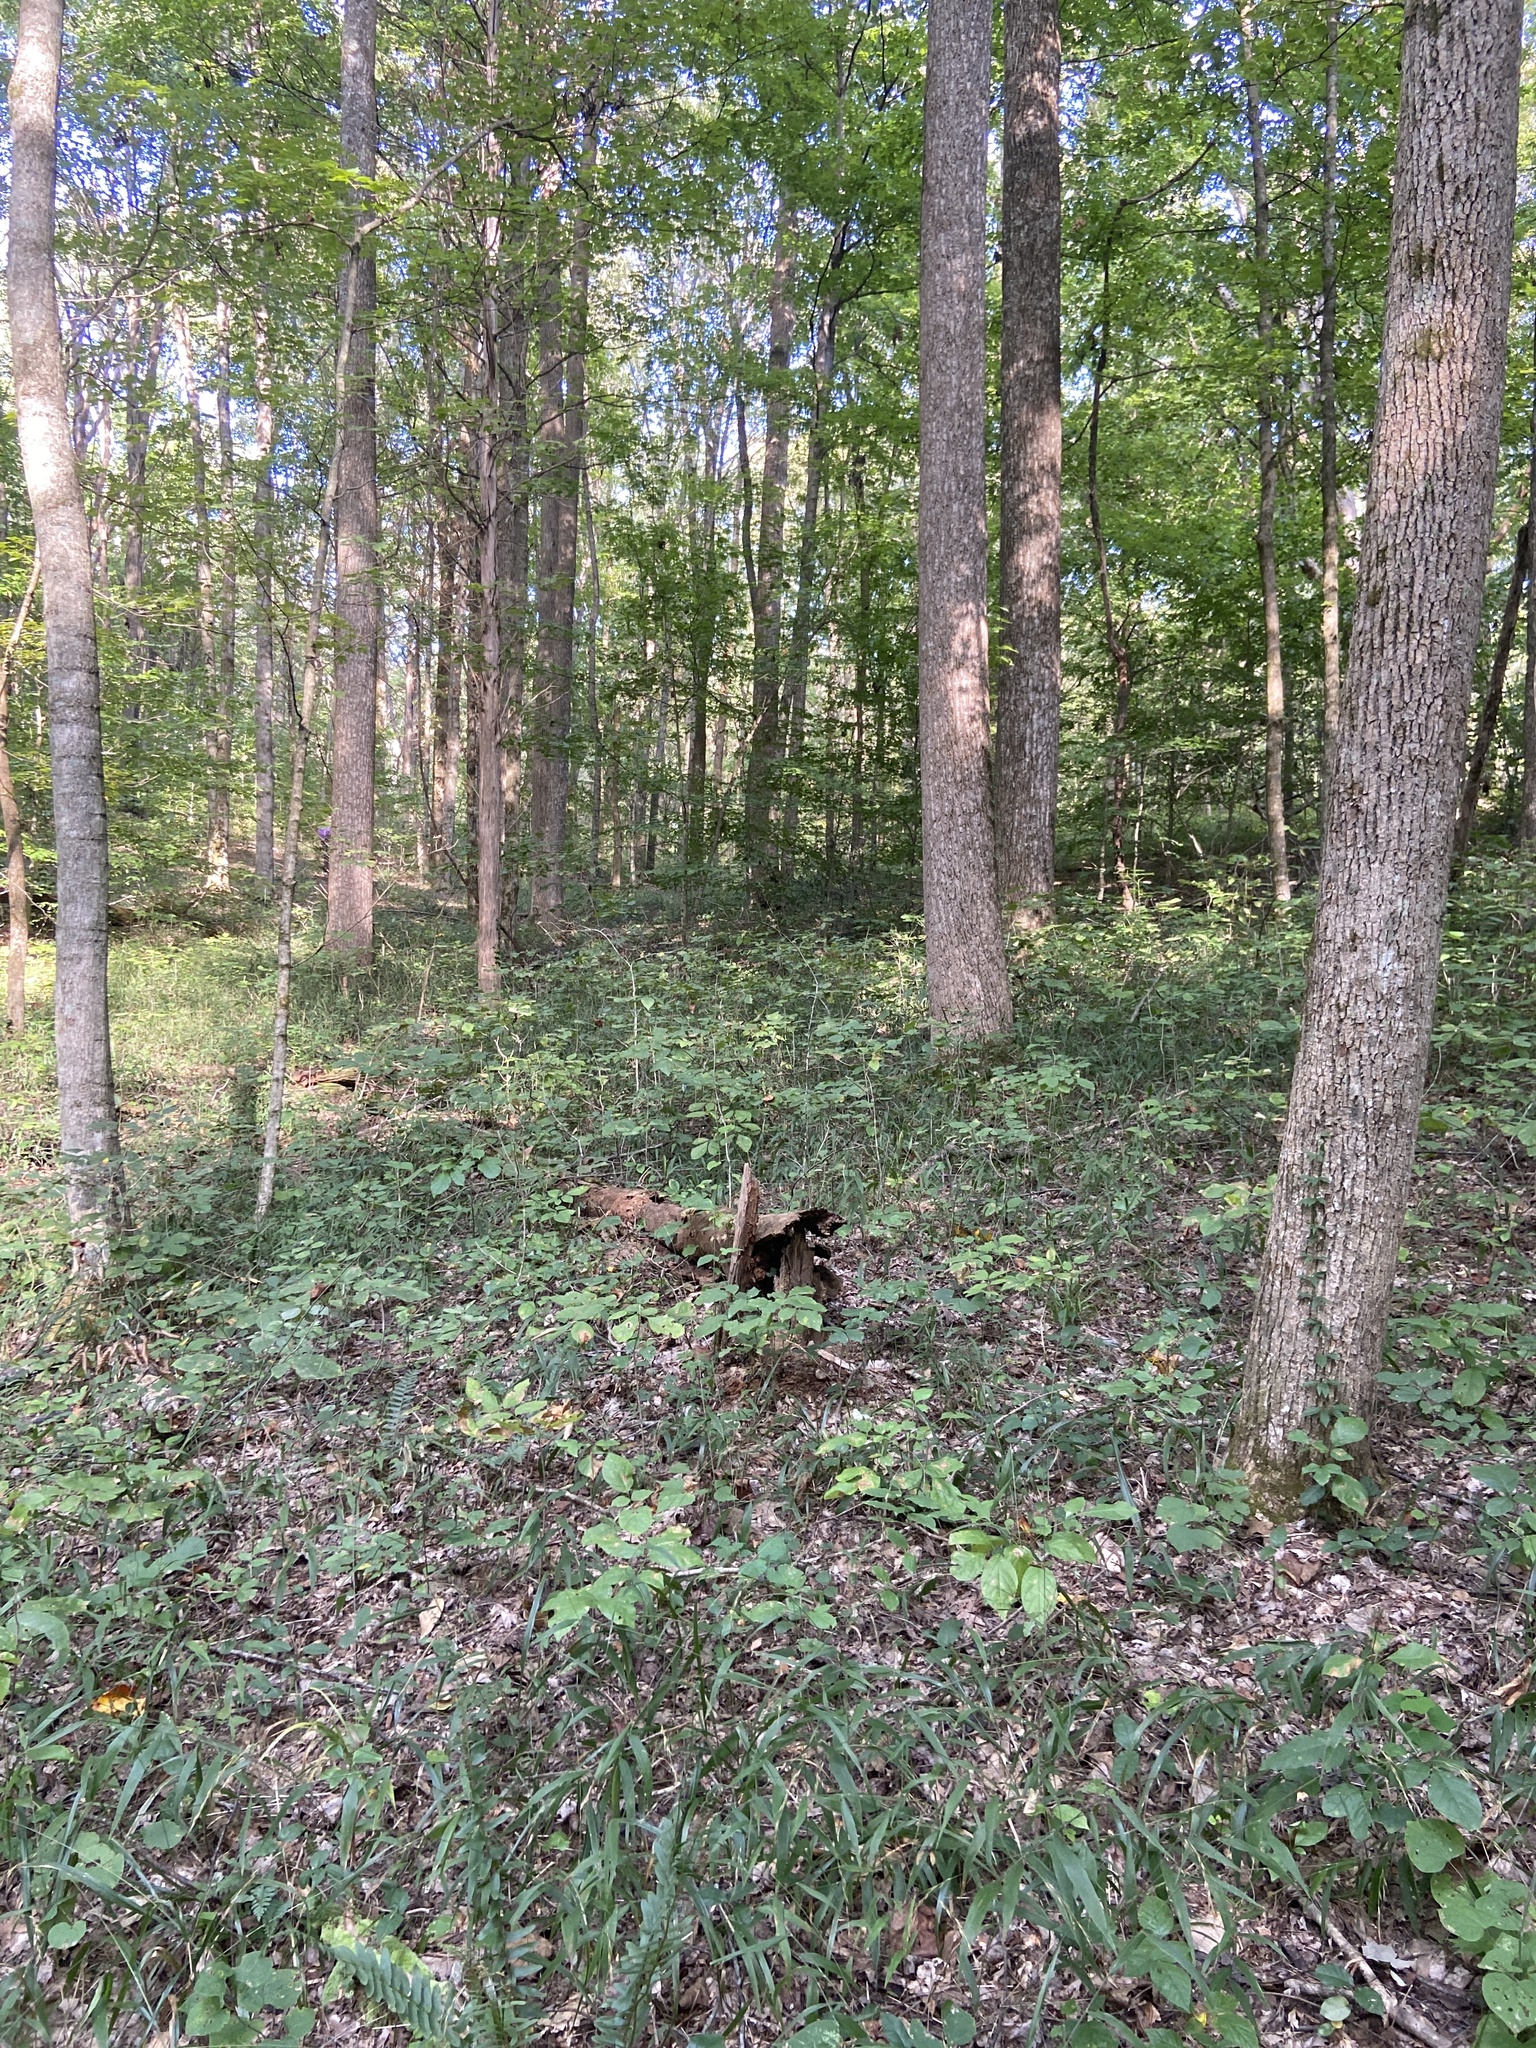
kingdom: Plantae
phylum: Tracheophyta
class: Liliopsida
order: Poales
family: Poaceae
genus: Diarrhena
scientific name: Diarrhena americana
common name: American beakgrain
